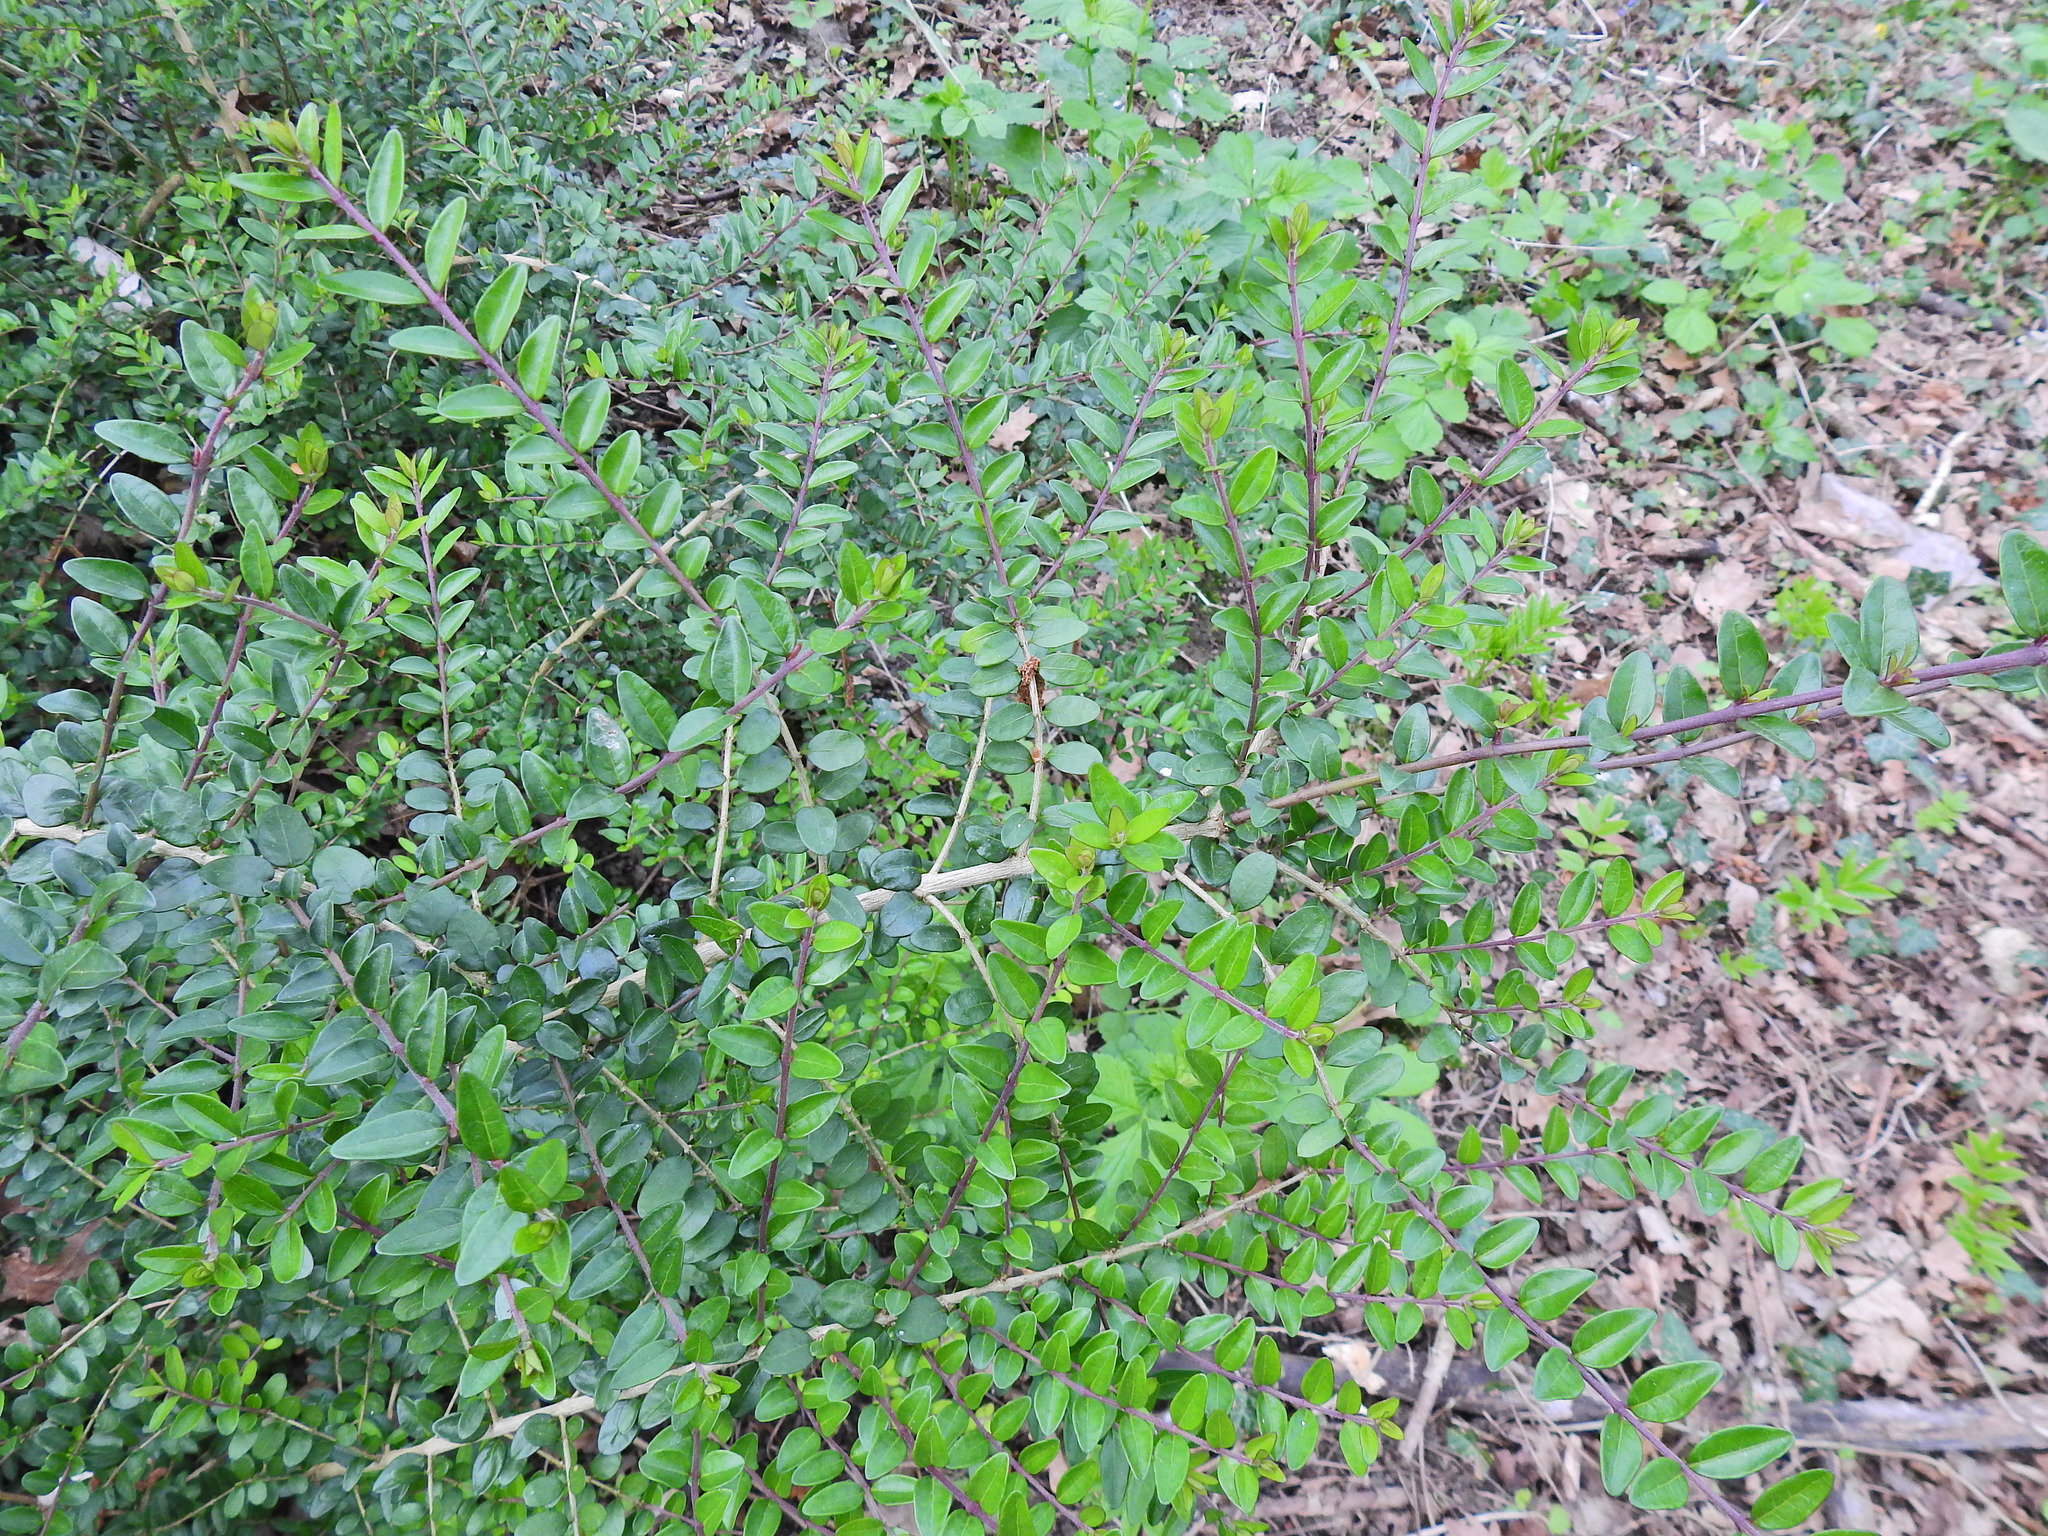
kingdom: Plantae
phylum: Tracheophyta
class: Magnoliopsida
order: Dipsacales
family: Caprifoliaceae
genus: Lonicera
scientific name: Lonicera pileata
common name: Box-leaved honeysuckle
